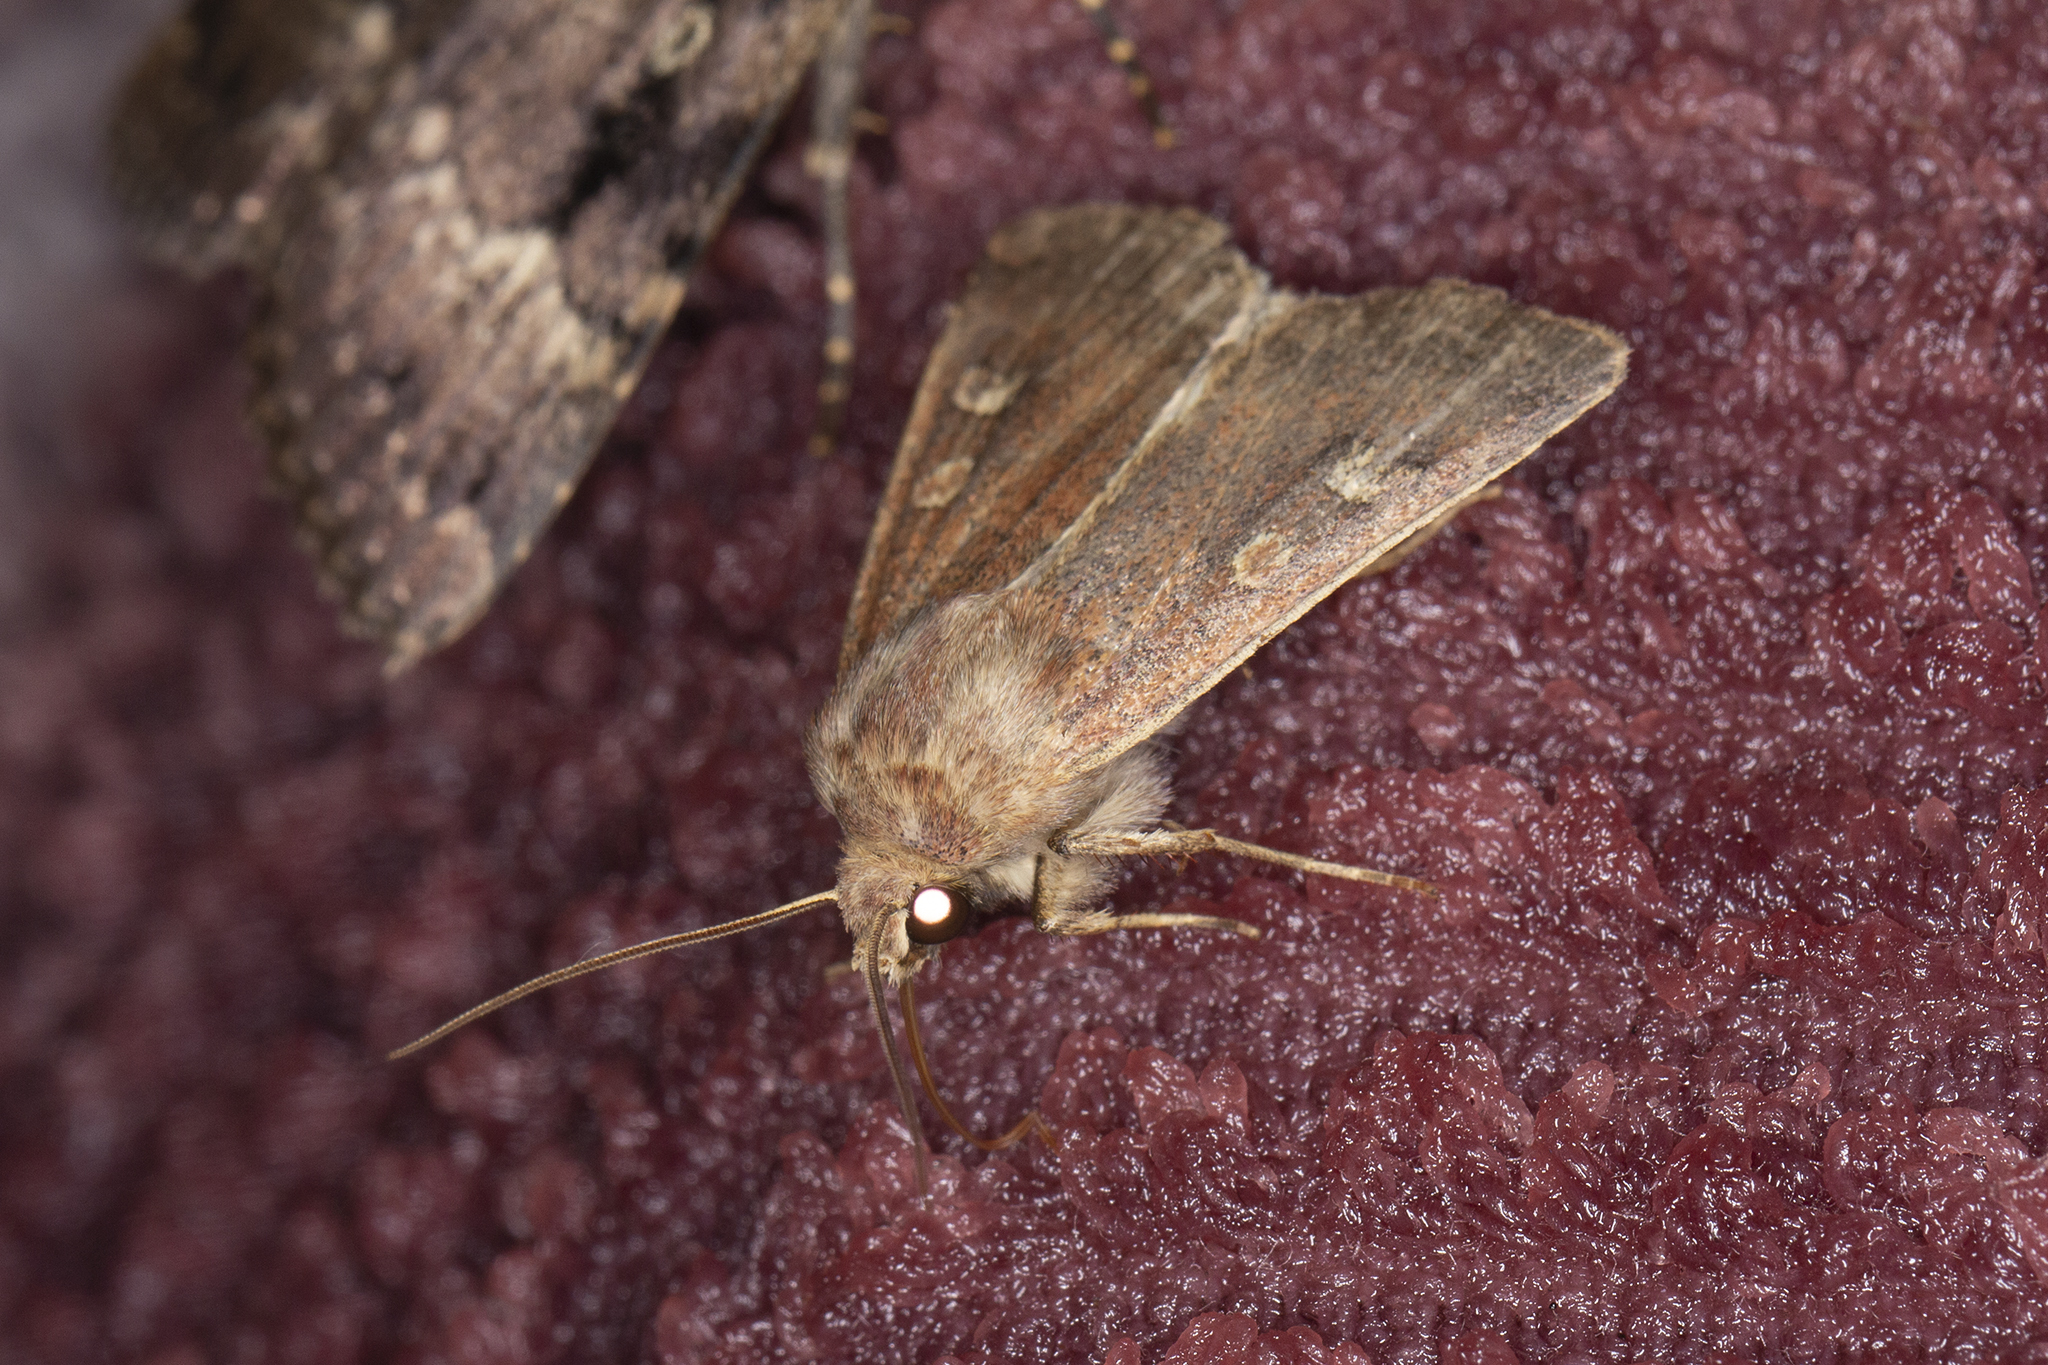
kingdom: Animalia
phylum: Arthropoda
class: Insecta
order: Lepidoptera
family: Noctuidae
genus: Xestia
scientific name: Xestia xanthographa
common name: Square-spot rustic
